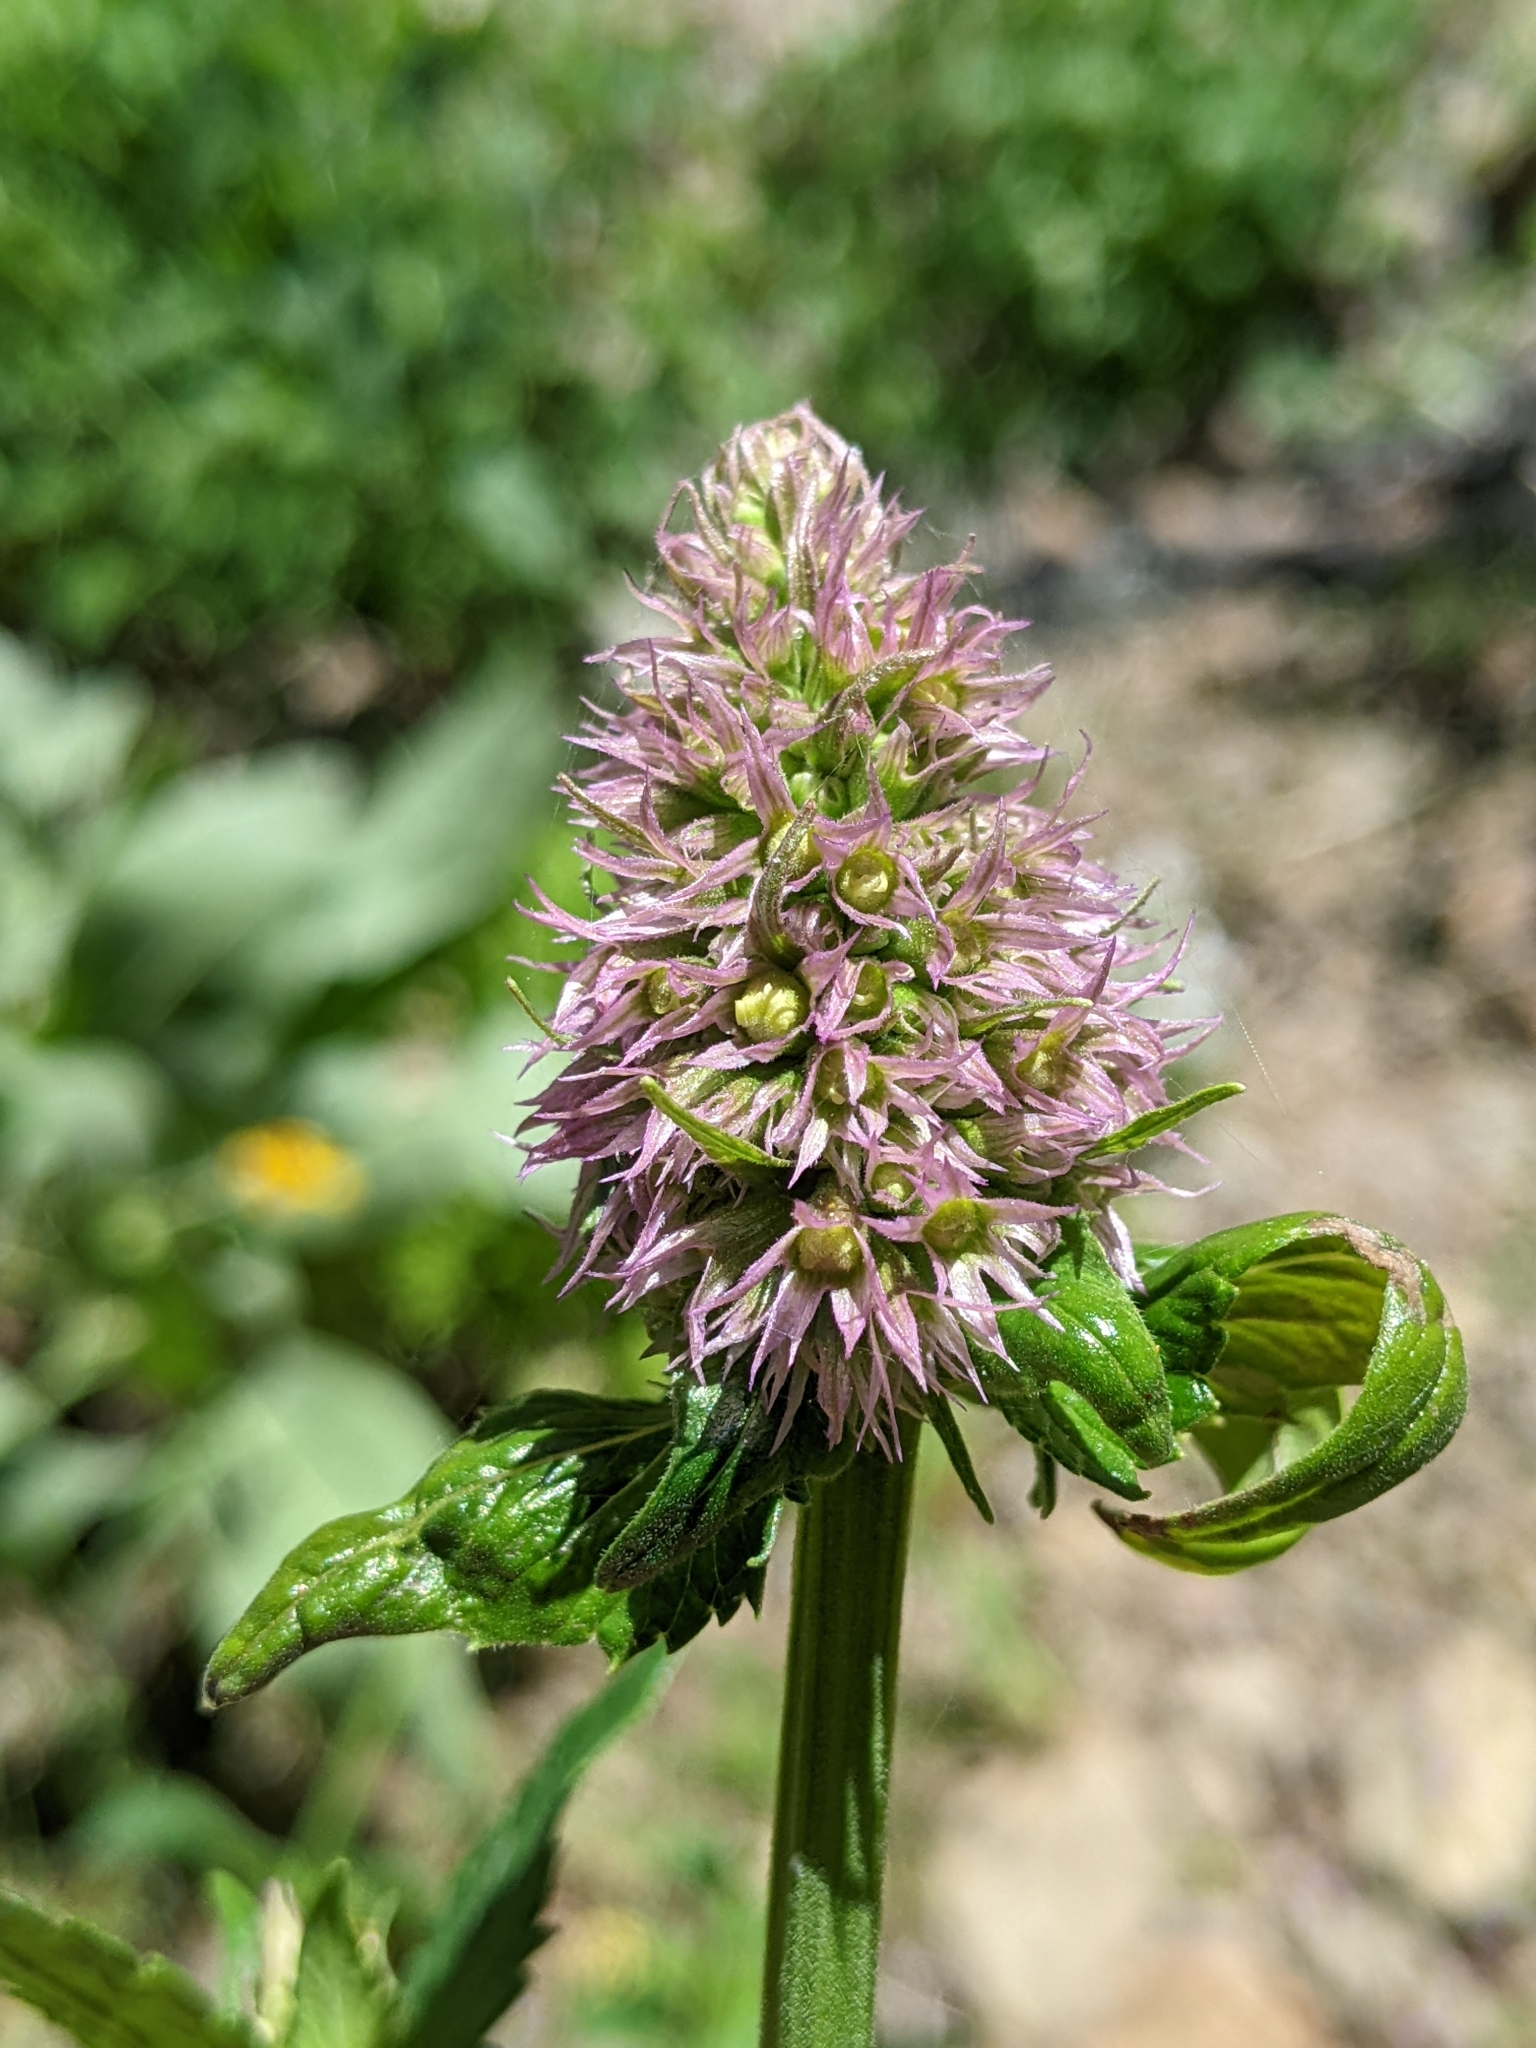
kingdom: Plantae
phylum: Tracheophyta
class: Magnoliopsida
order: Lamiales
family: Lamiaceae
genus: Agastache
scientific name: Agastache urticifolia
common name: Horsemint giant hyssop
